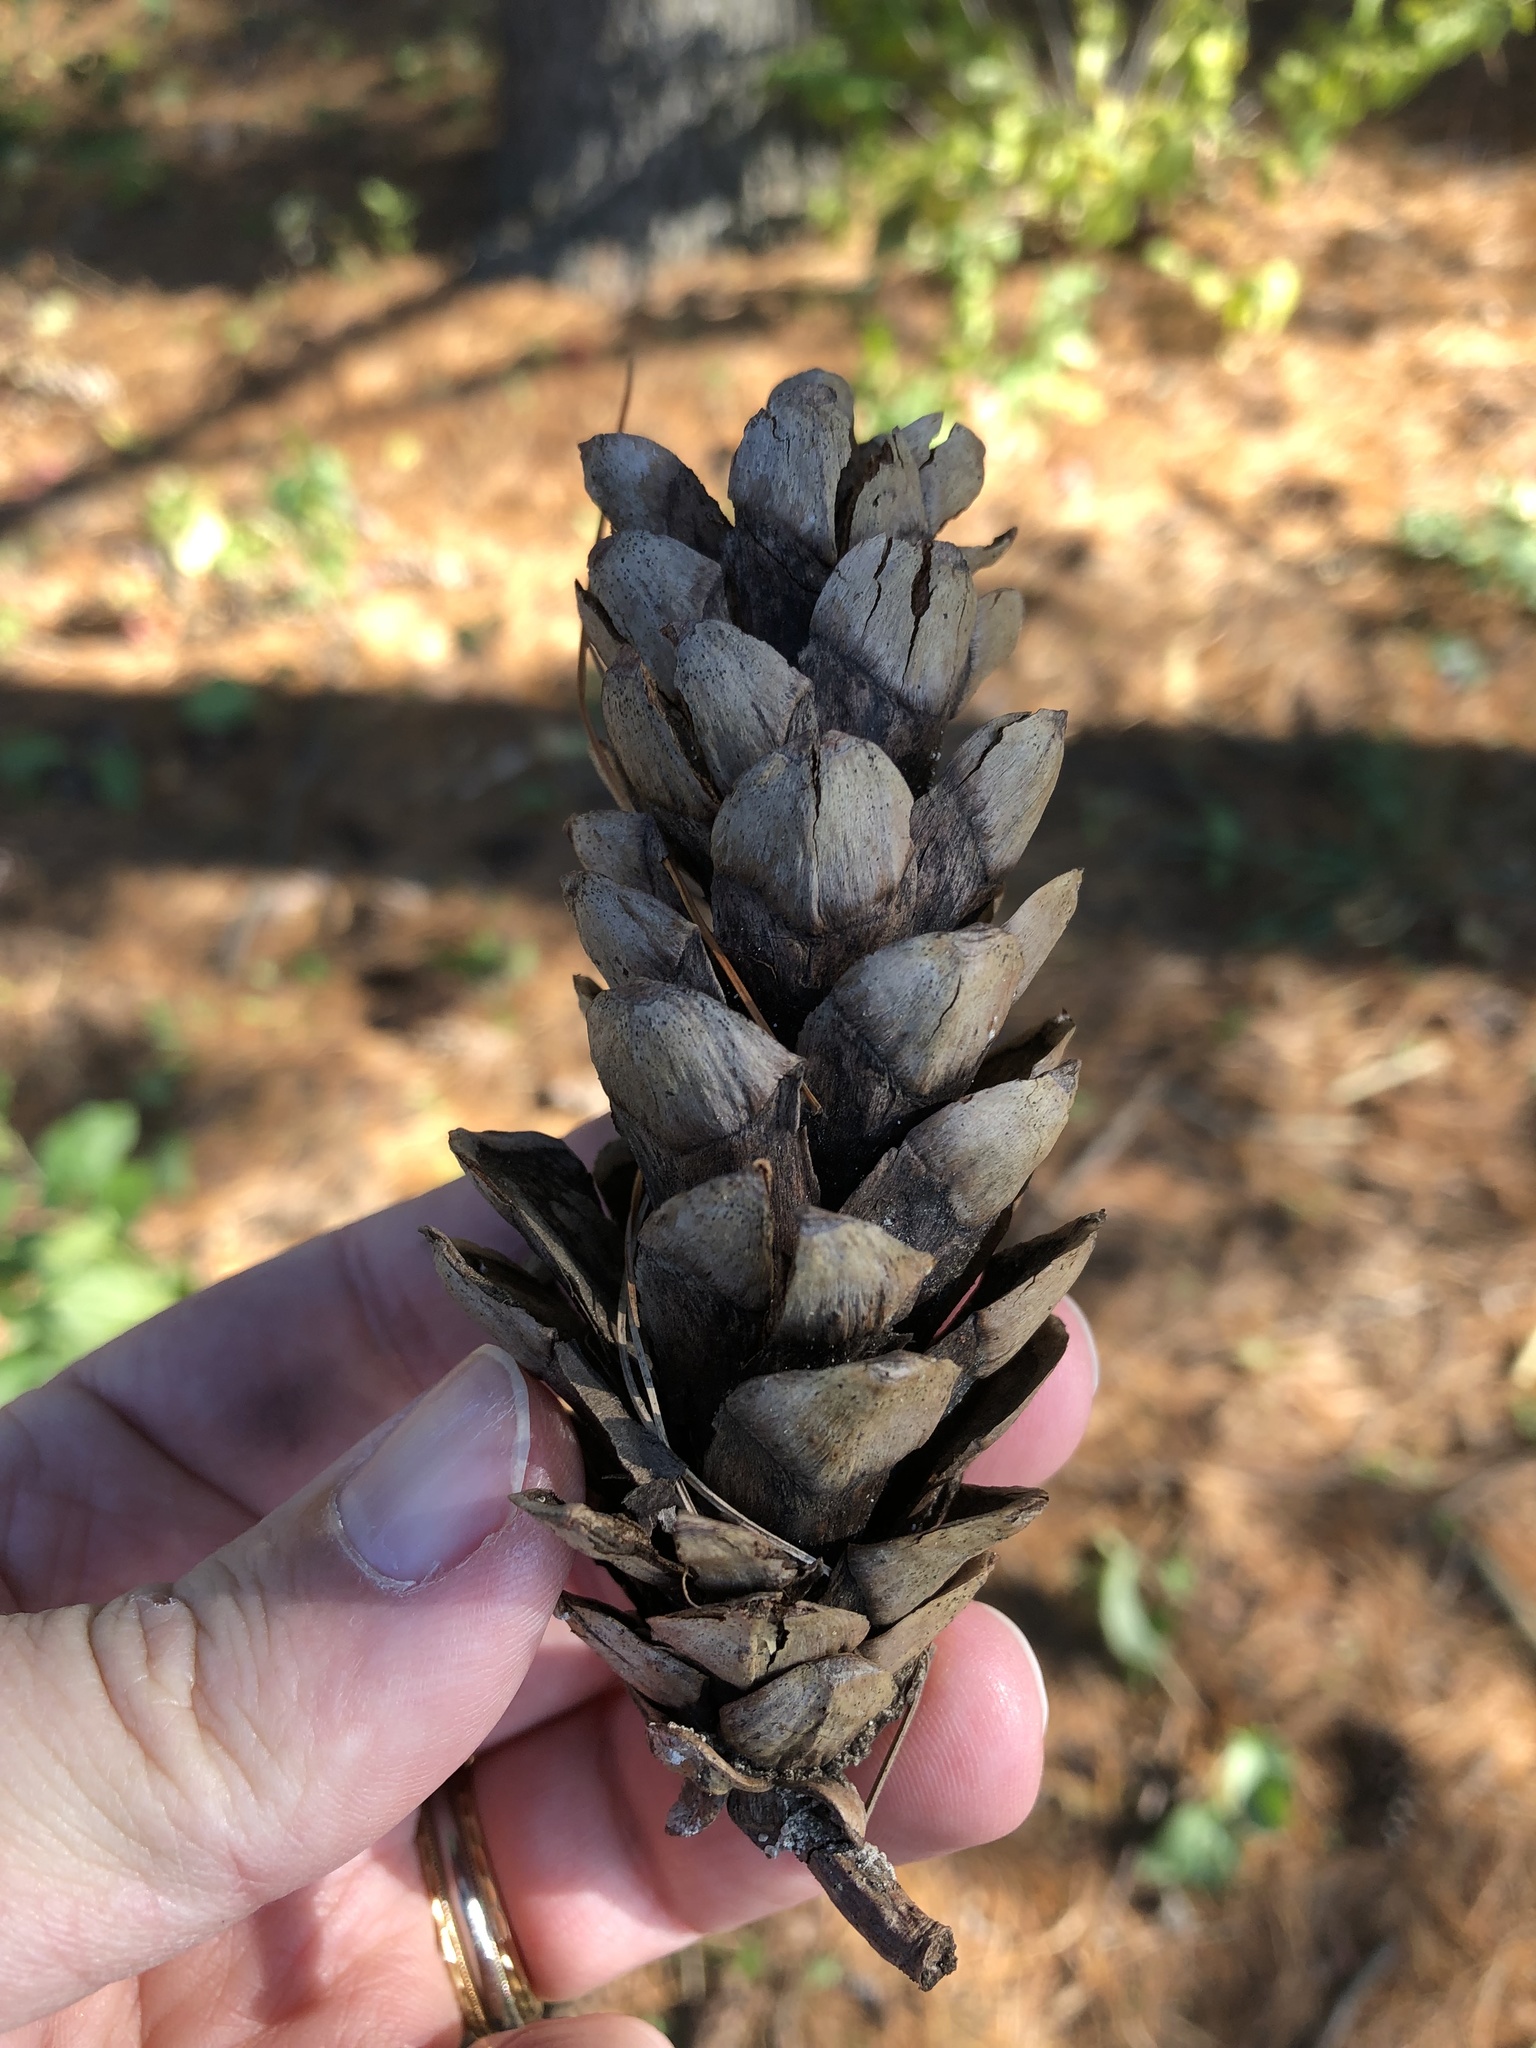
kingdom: Plantae
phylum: Tracheophyta
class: Pinopsida
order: Pinales
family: Pinaceae
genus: Pinus
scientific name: Pinus strobus
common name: Weymouth pine
